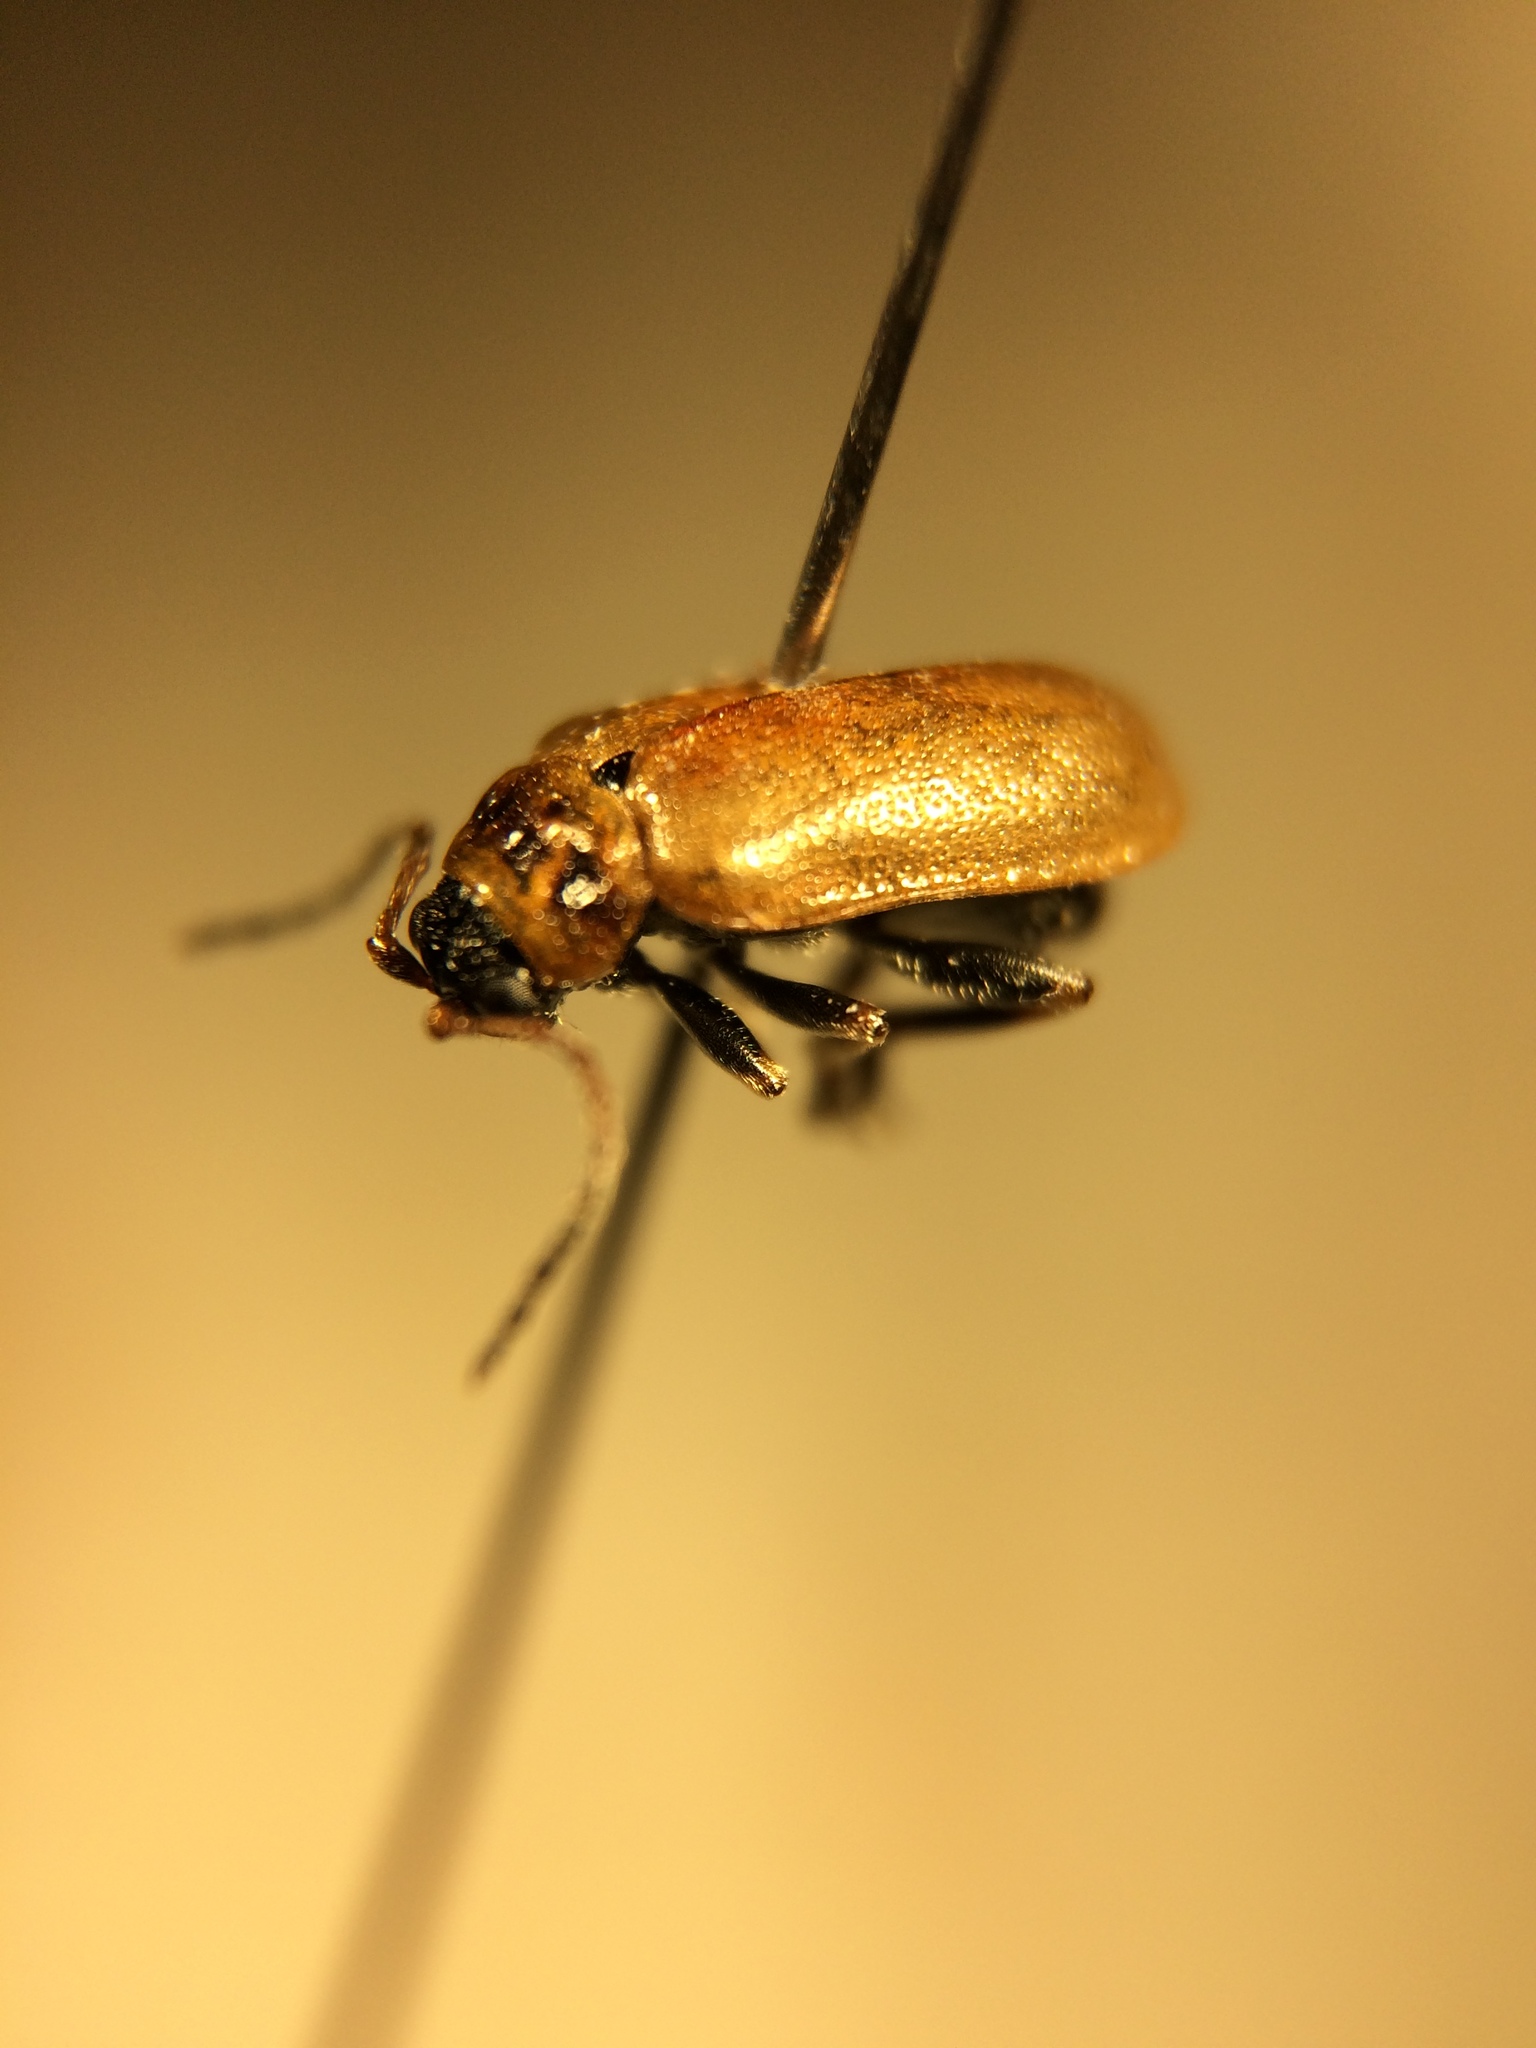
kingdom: Animalia
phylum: Arthropoda
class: Insecta
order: Coleoptera
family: Chrysomelidae
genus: Lochmaea
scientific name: Lochmaea caprea
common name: Willow leaf beetle
